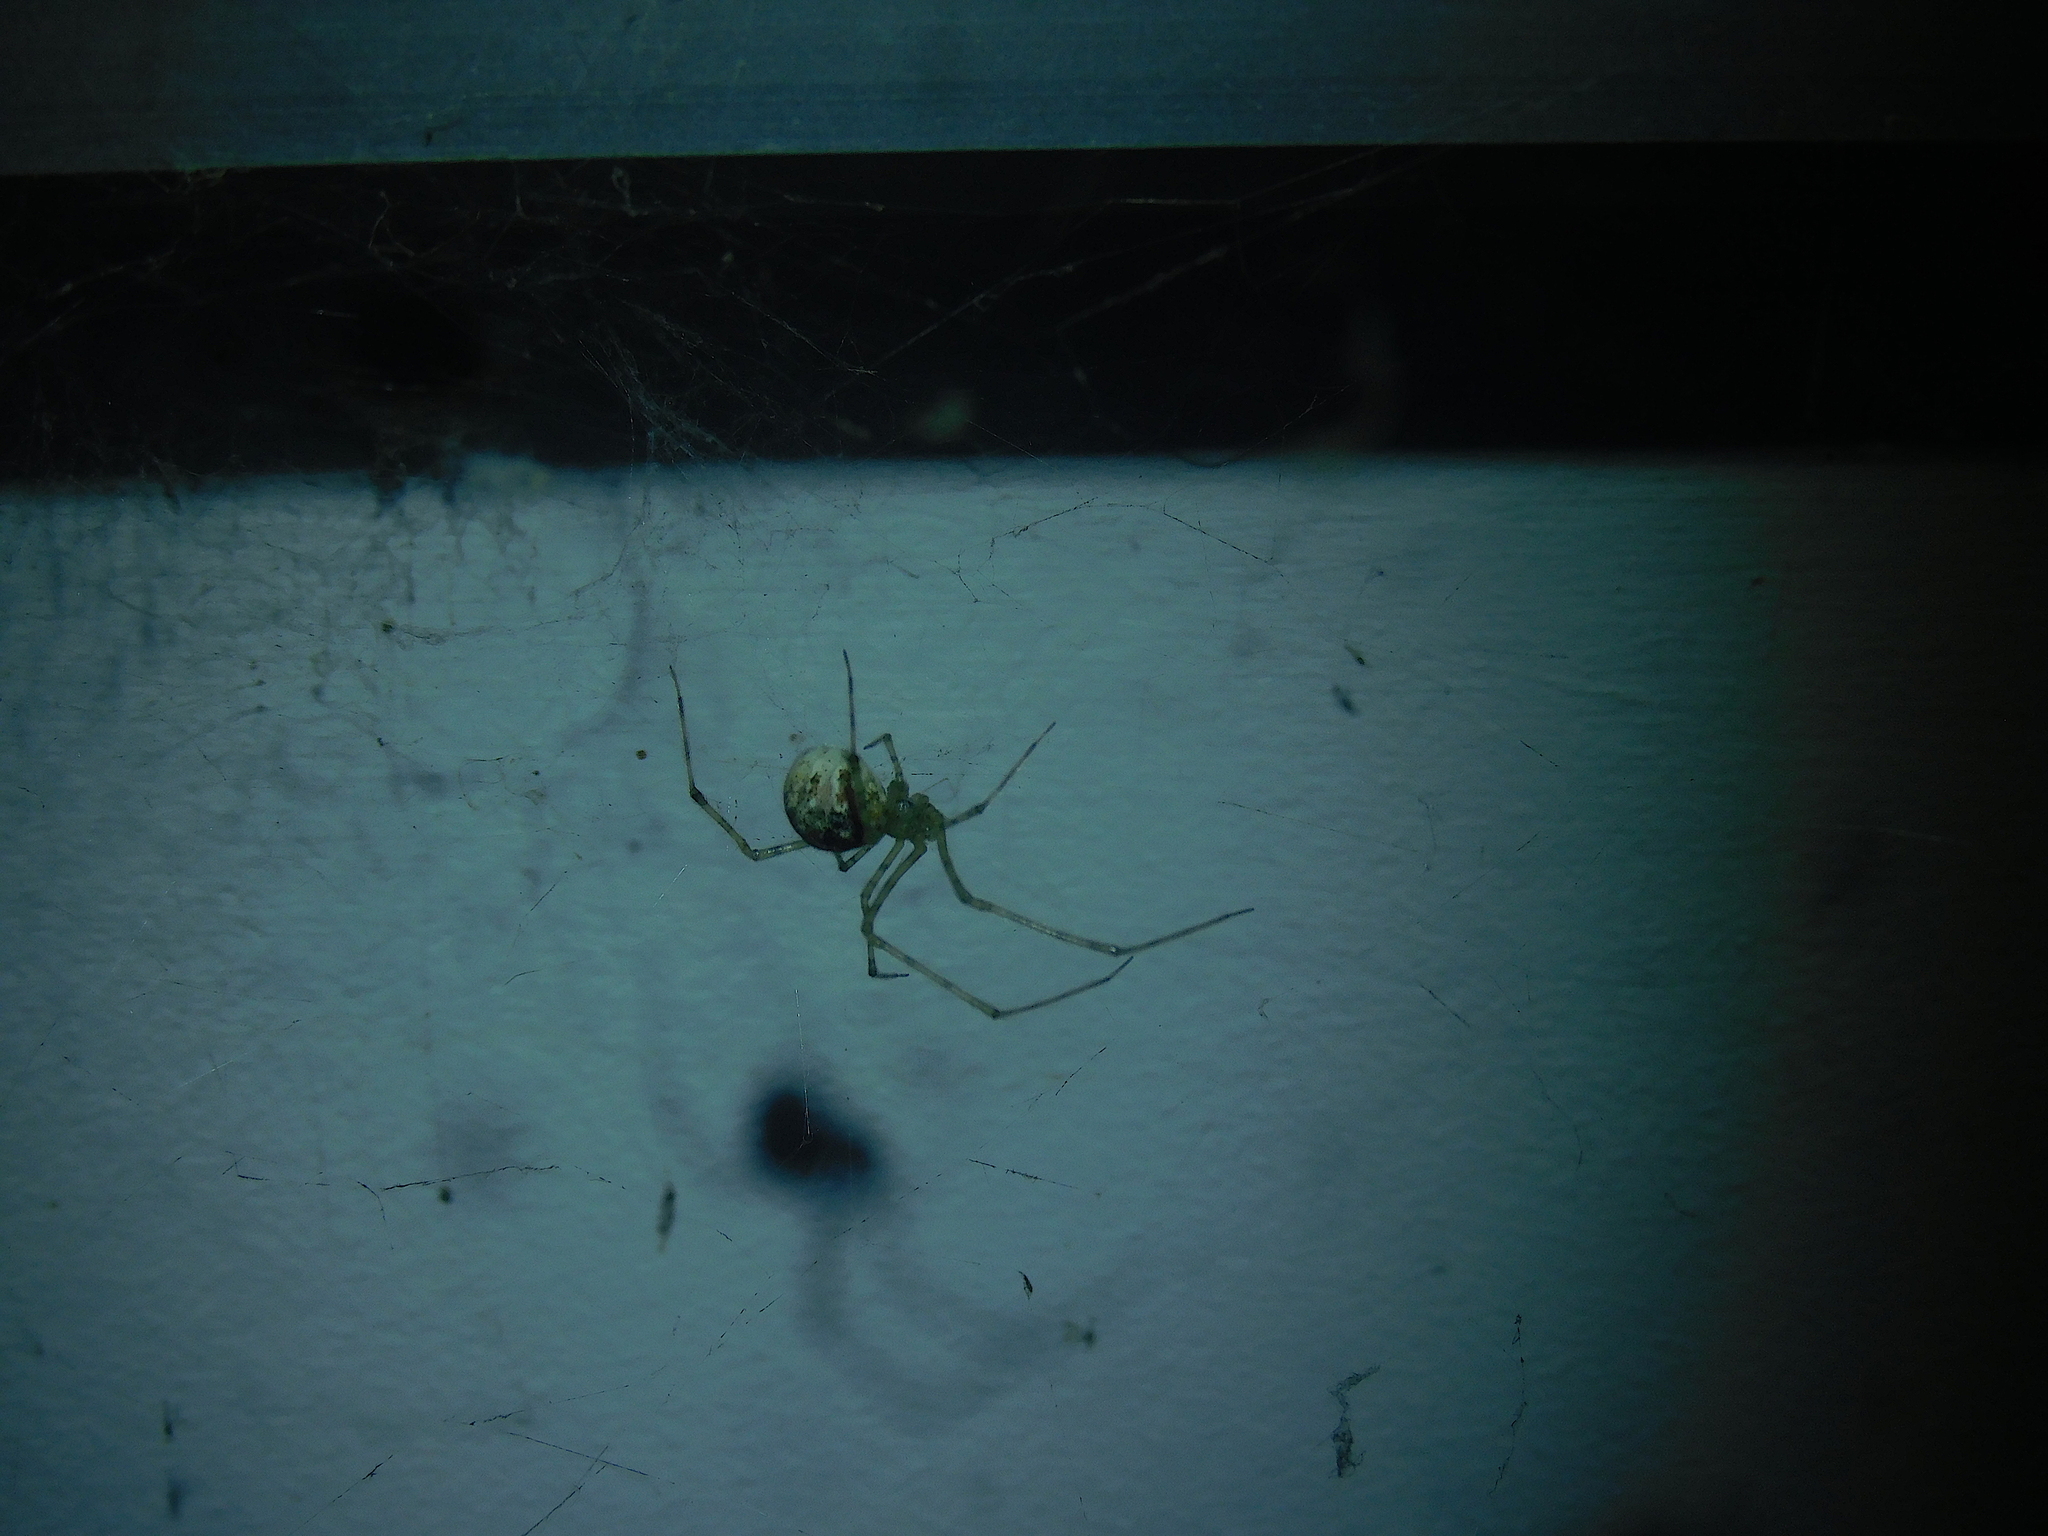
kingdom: Animalia
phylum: Arthropoda
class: Arachnida
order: Araneae
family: Theridiidae
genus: Cryptachaea
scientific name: Cryptachaea gigantipes
